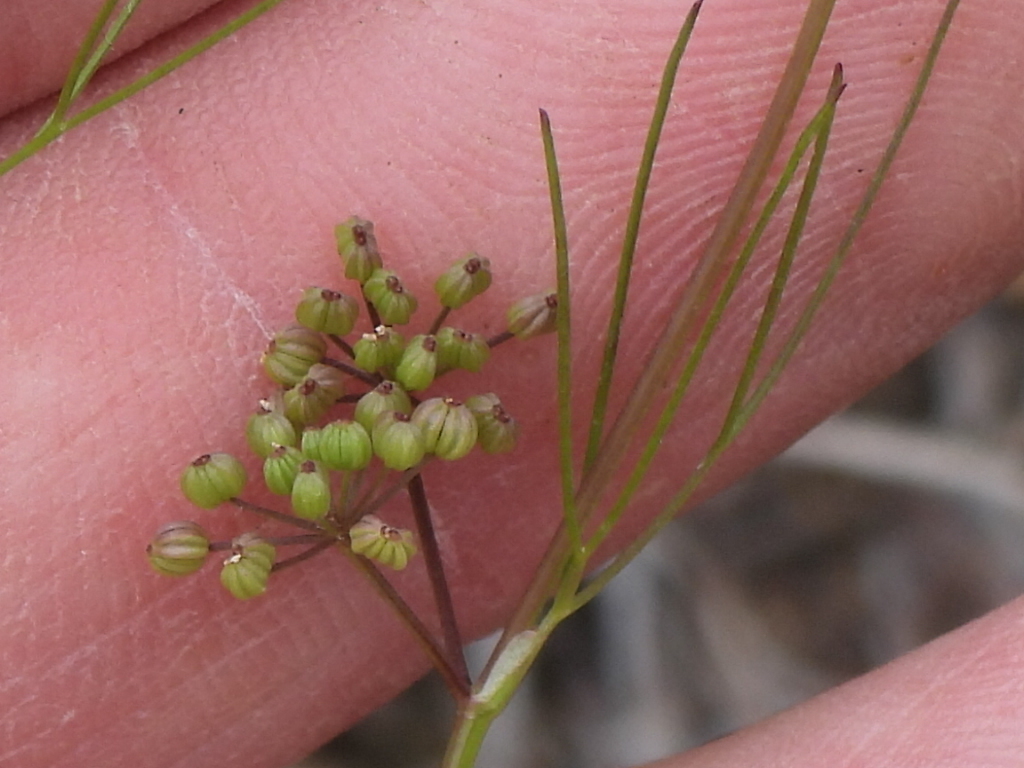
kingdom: Plantae
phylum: Tracheophyta
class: Magnoliopsida
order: Apiales
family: Apiaceae
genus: Cyclospermum
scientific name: Cyclospermum leptophyllum
